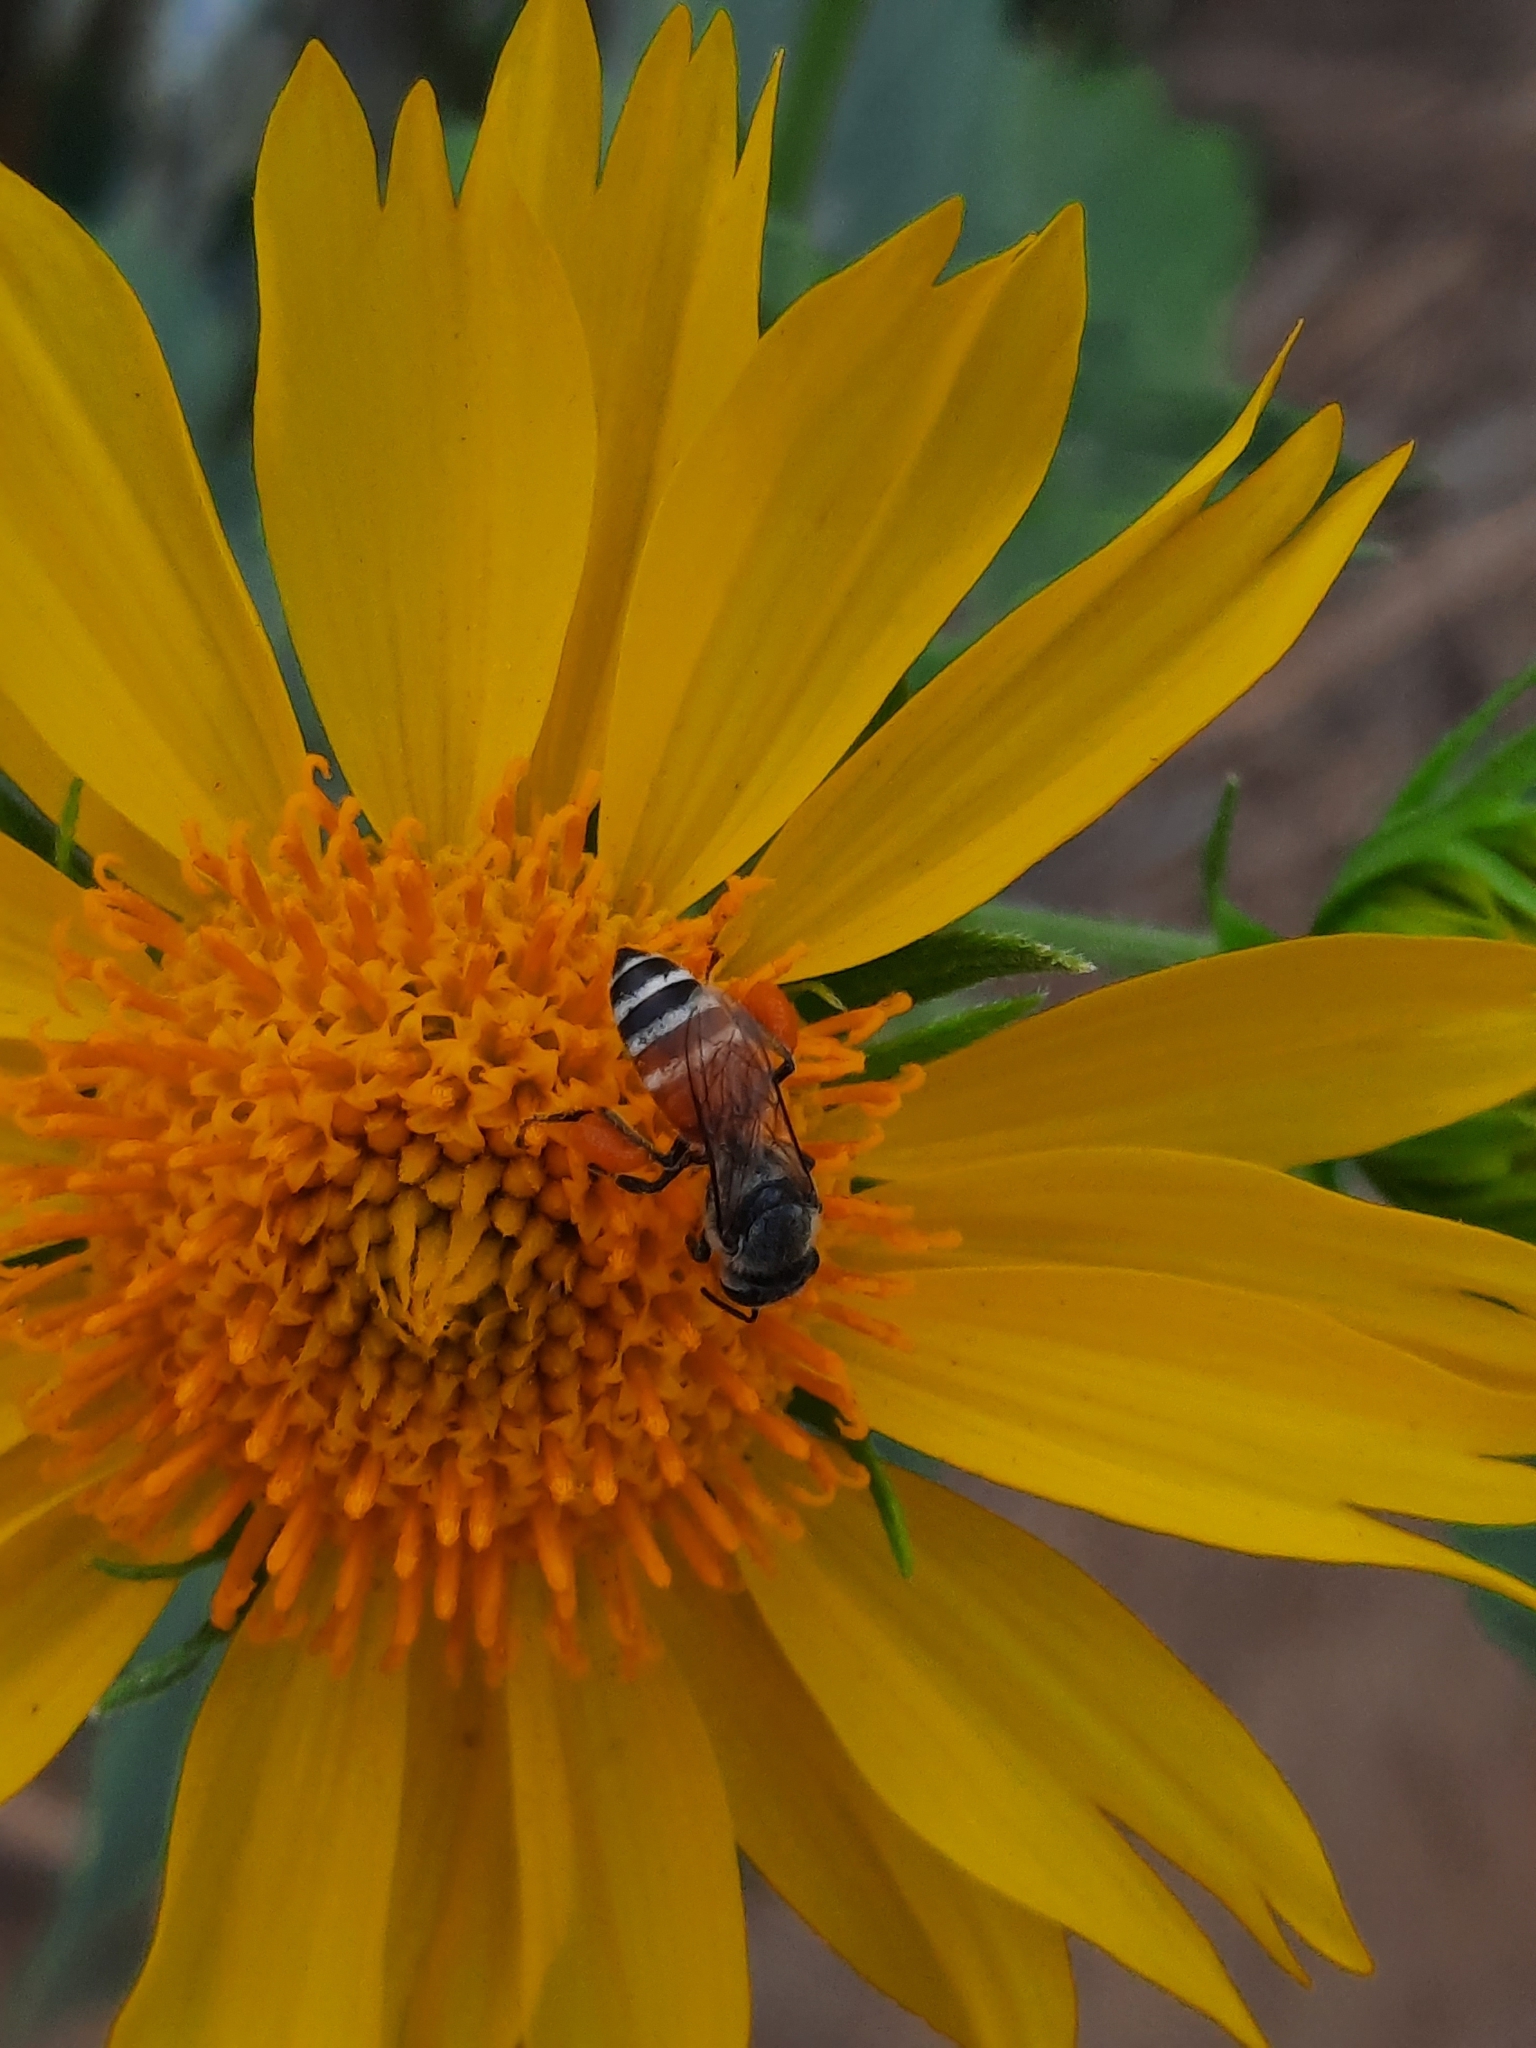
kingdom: Animalia
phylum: Arthropoda
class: Insecta
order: Hymenoptera
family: Apidae
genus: Apis
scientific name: Apis florea
